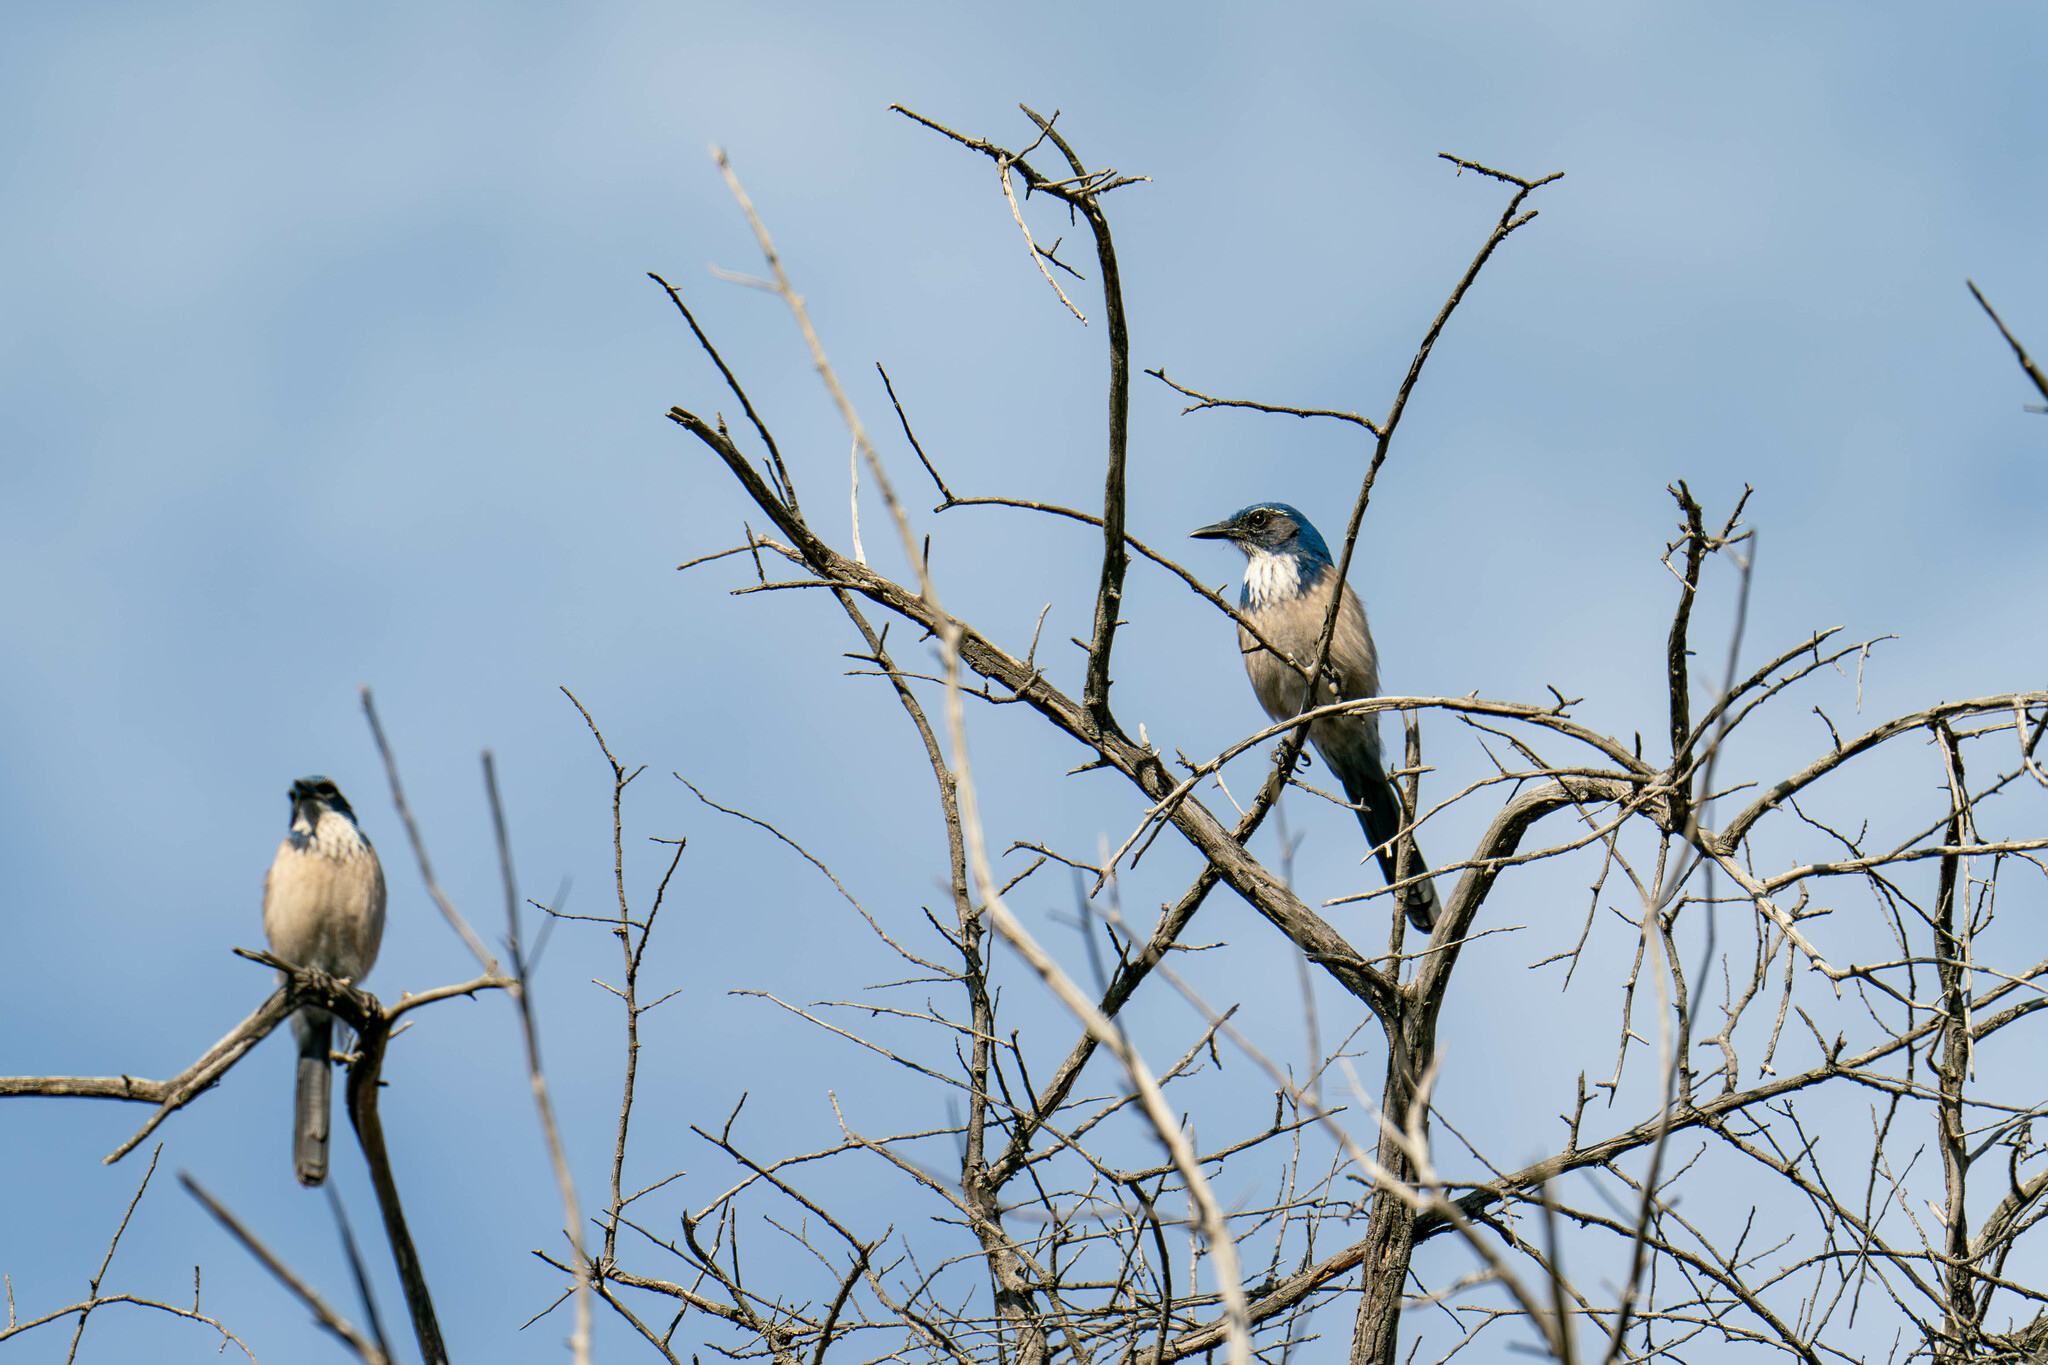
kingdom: Animalia
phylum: Chordata
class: Aves
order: Passeriformes
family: Corvidae
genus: Aphelocoma
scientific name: Aphelocoma californica
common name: California scrub-jay
